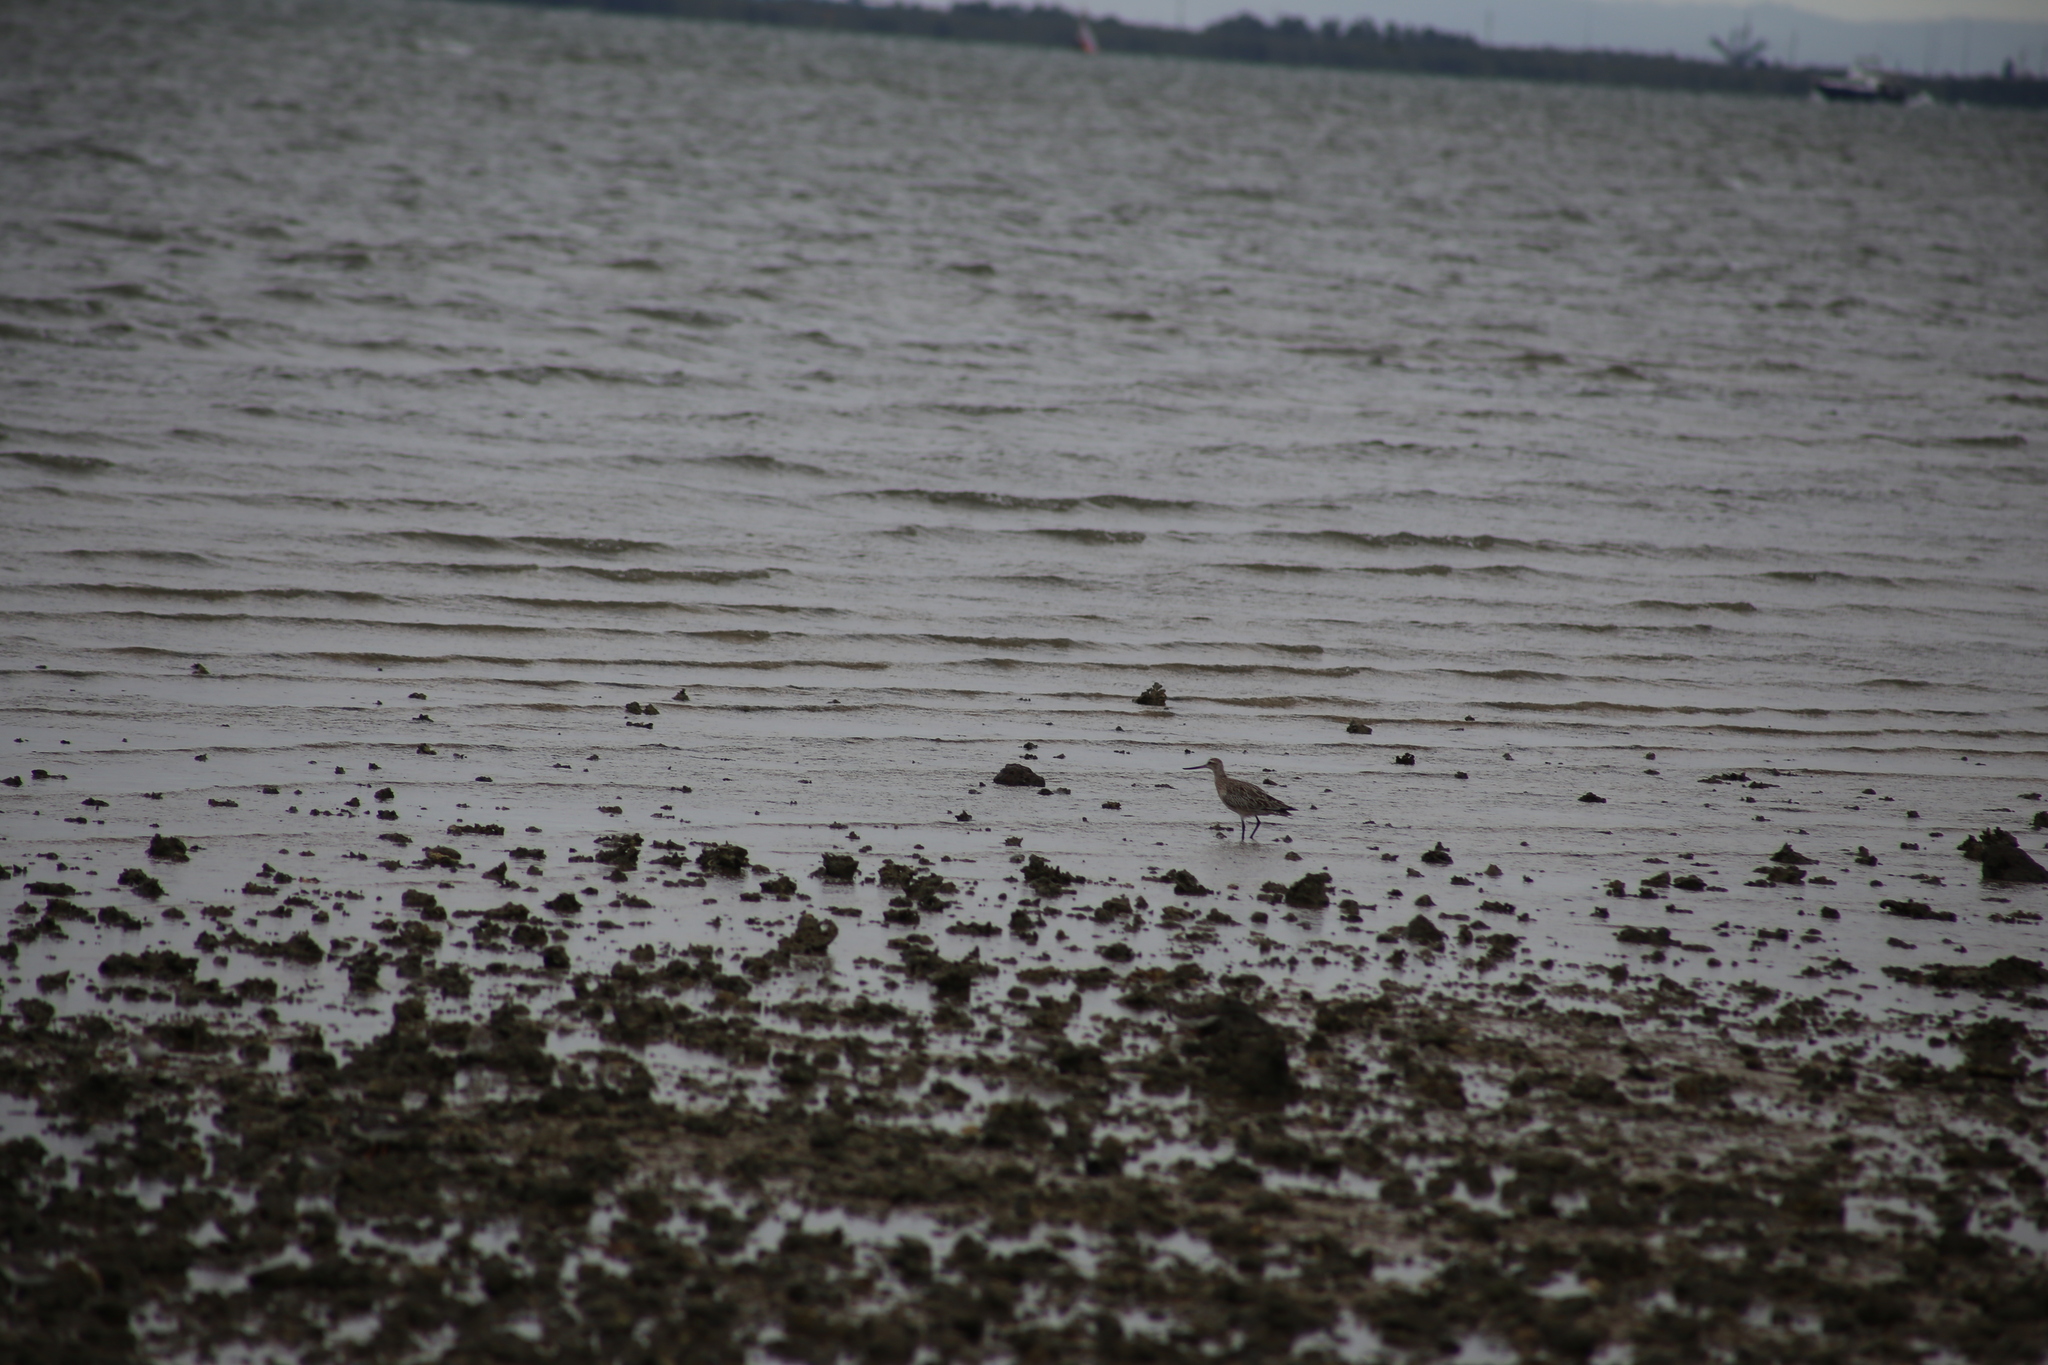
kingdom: Animalia
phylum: Chordata
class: Aves
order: Charadriiformes
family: Scolopacidae
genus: Limosa
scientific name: Limosa lapponica
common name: Bar-tailed godwit
